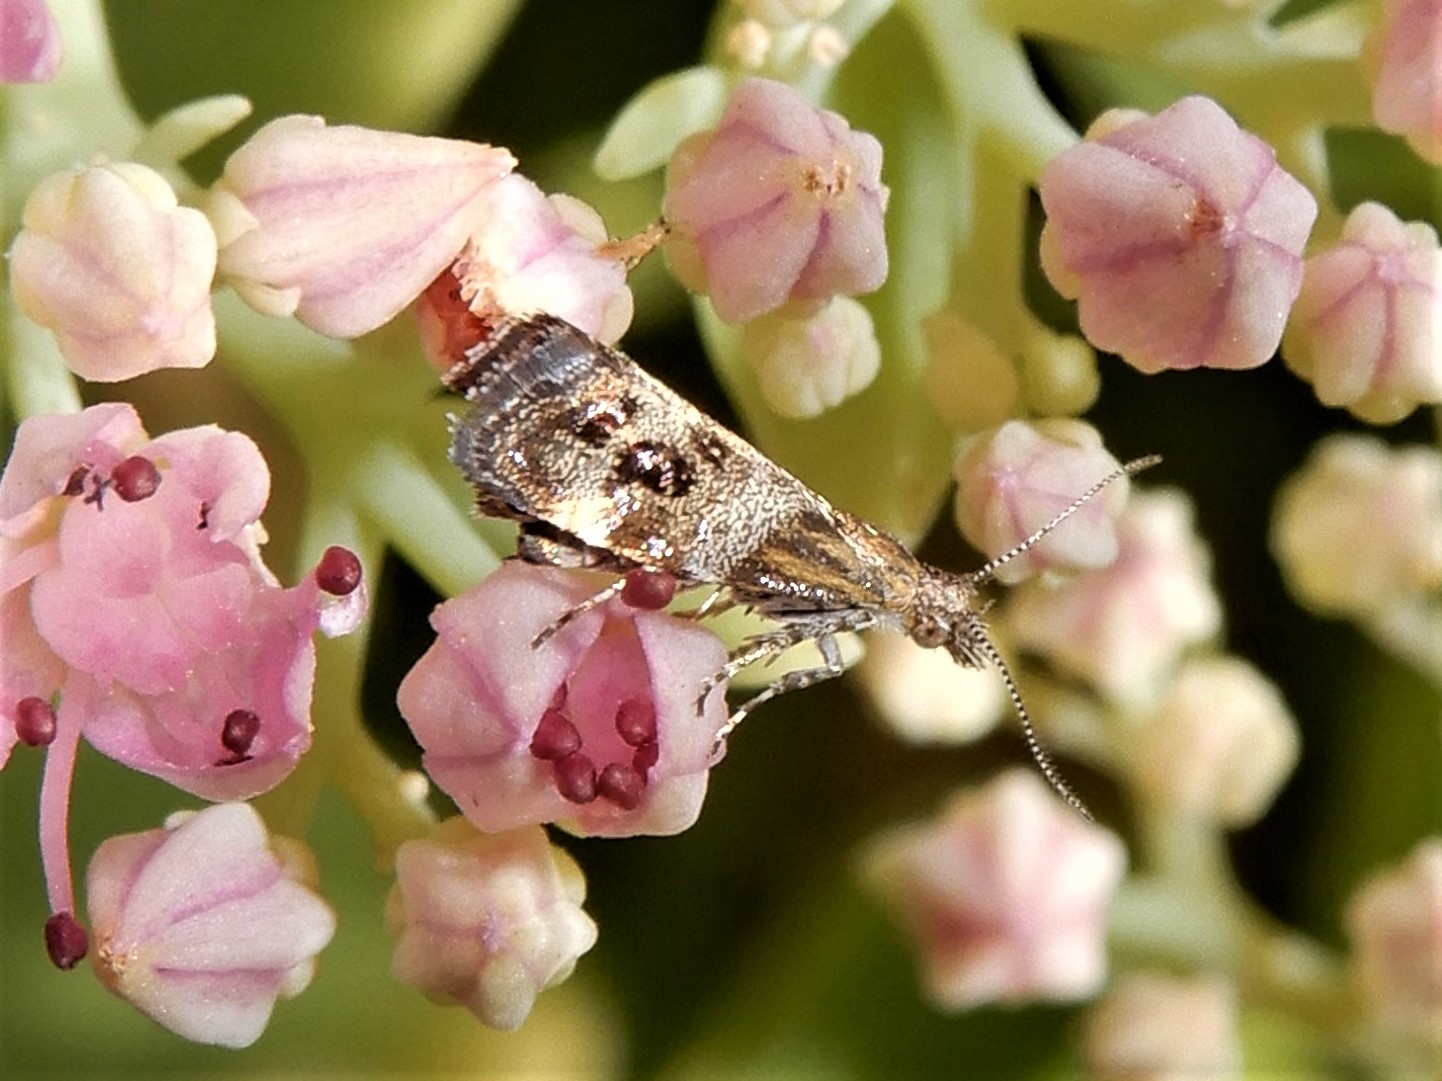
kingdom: Animalia
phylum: Arthropoda
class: Insecta
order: Lepidoptera
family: Choreutidae
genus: Tebenna
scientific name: Tebenna micalis
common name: Vagrant twitcher
